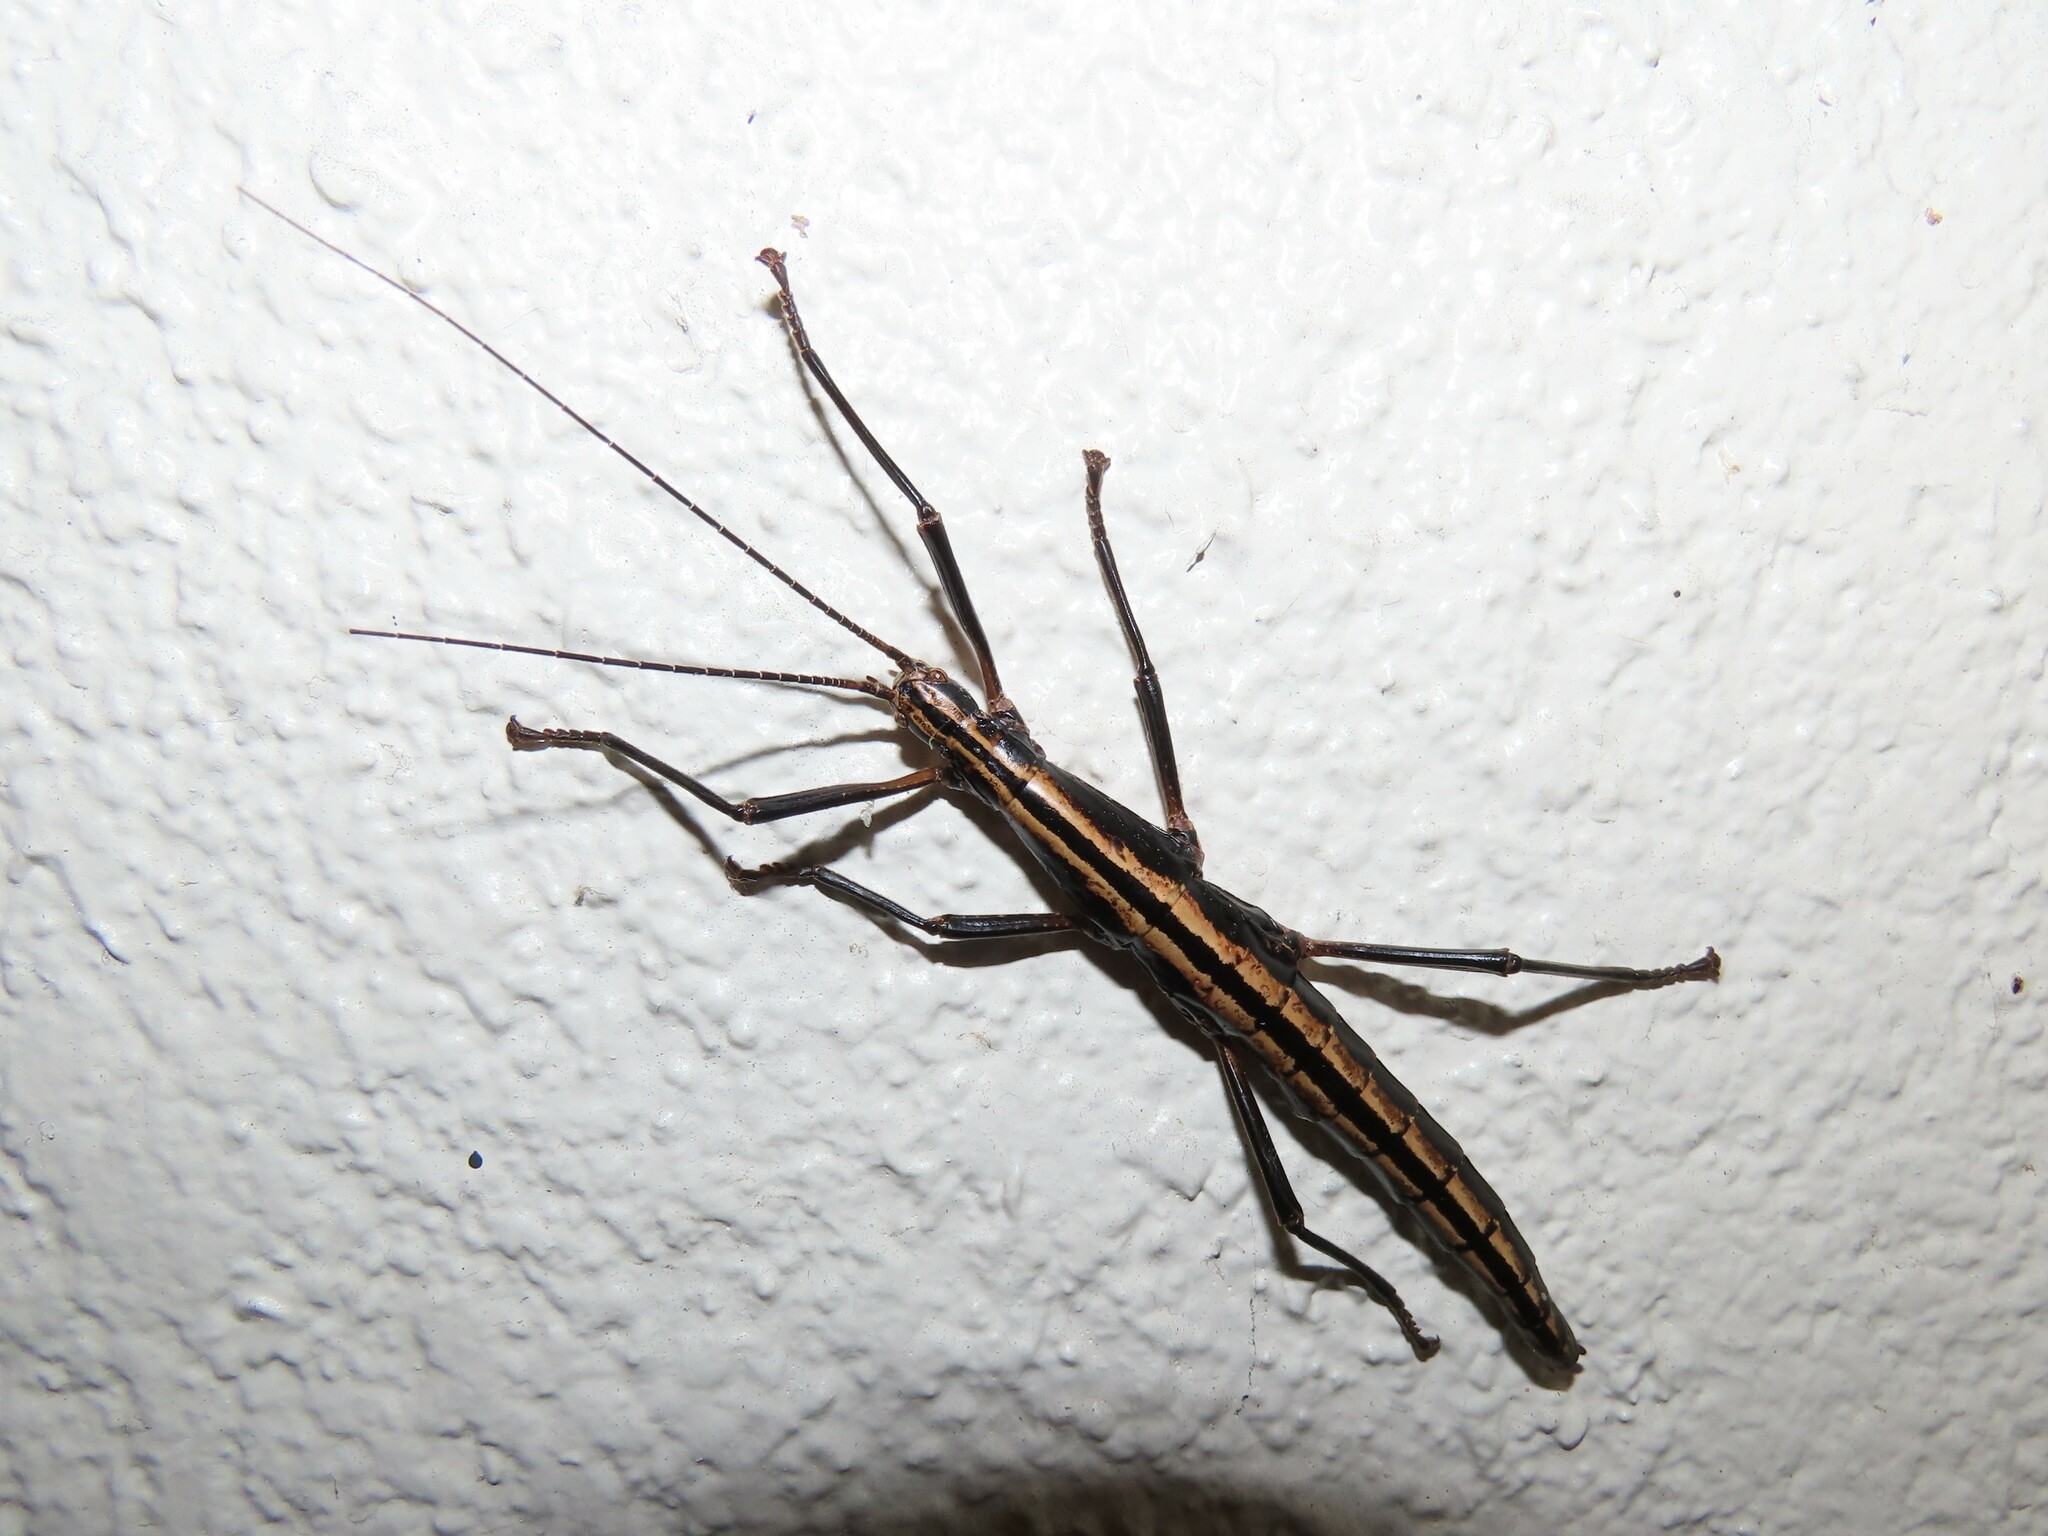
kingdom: Animalia
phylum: Arthropoda
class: Insecta
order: Phasmida
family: Pseudophasmatidae
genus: Anisomorpha
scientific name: Anisomorpha buprestoides
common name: Florida stick insect
